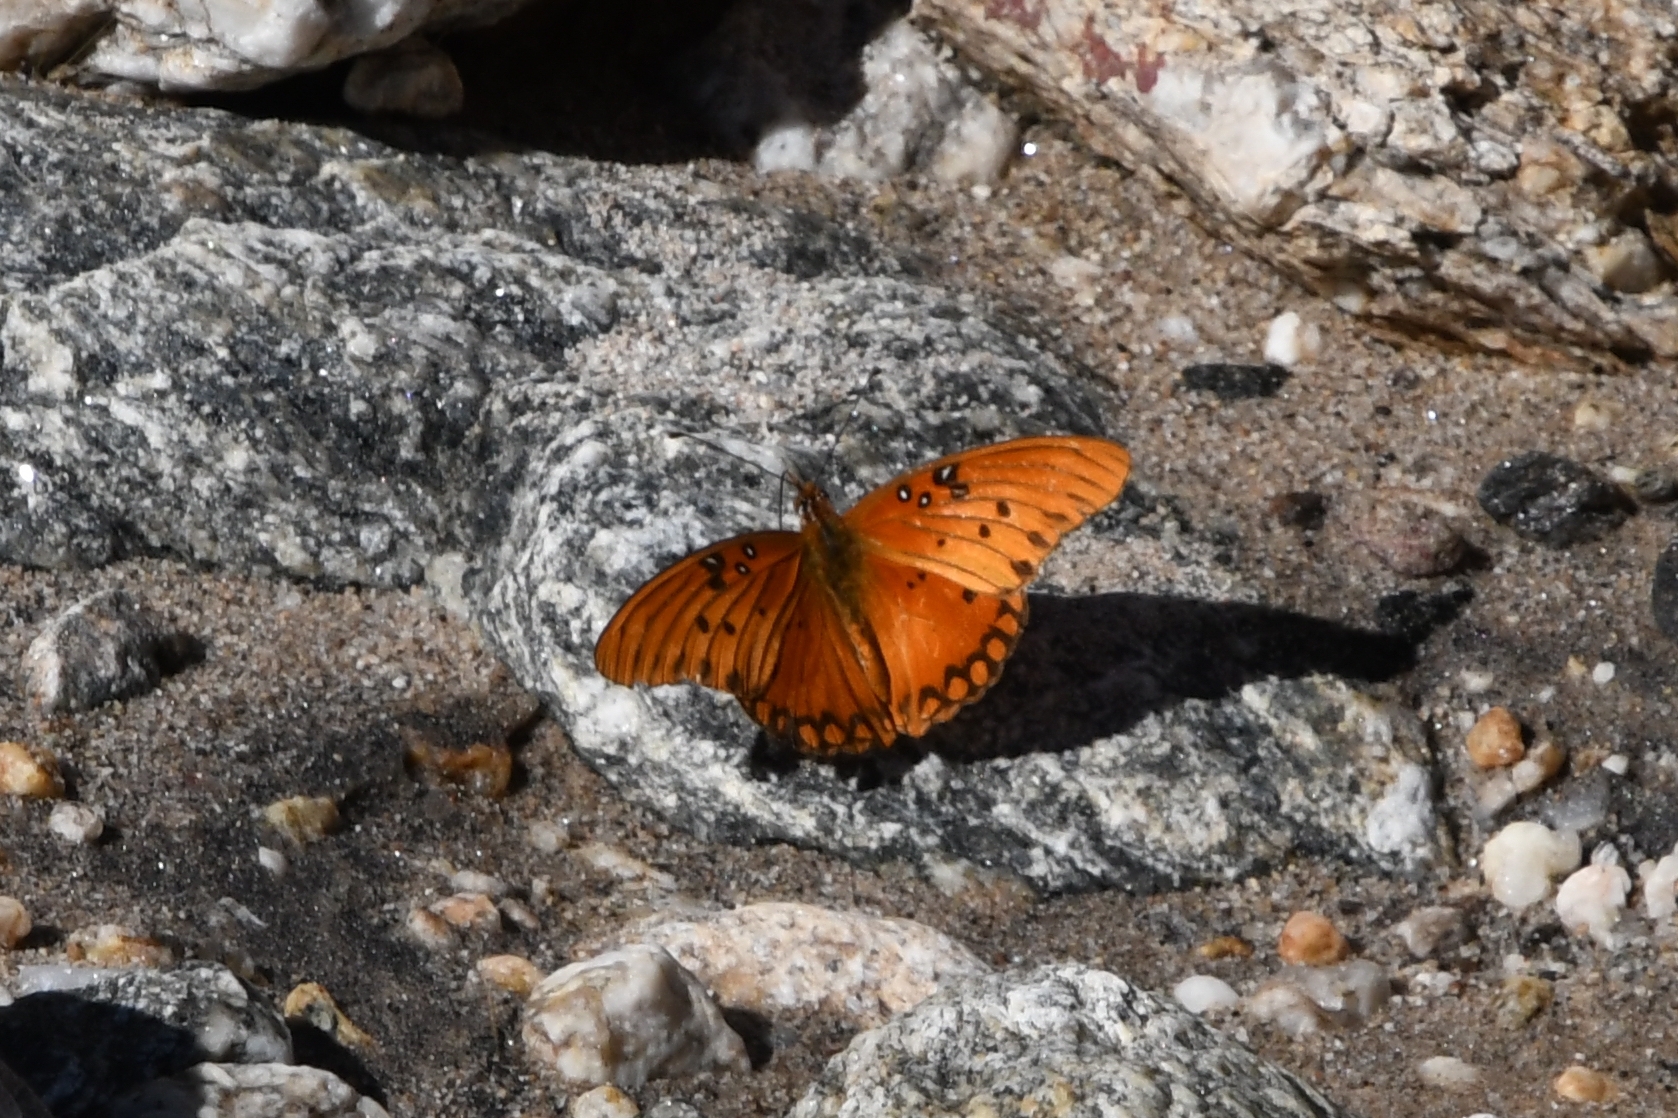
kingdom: Animalia
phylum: Arthropoda
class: Insecta
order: Lepidoptera
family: Nymphalidae
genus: Dione
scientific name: Dione vanillae
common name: Gulf fritillary
